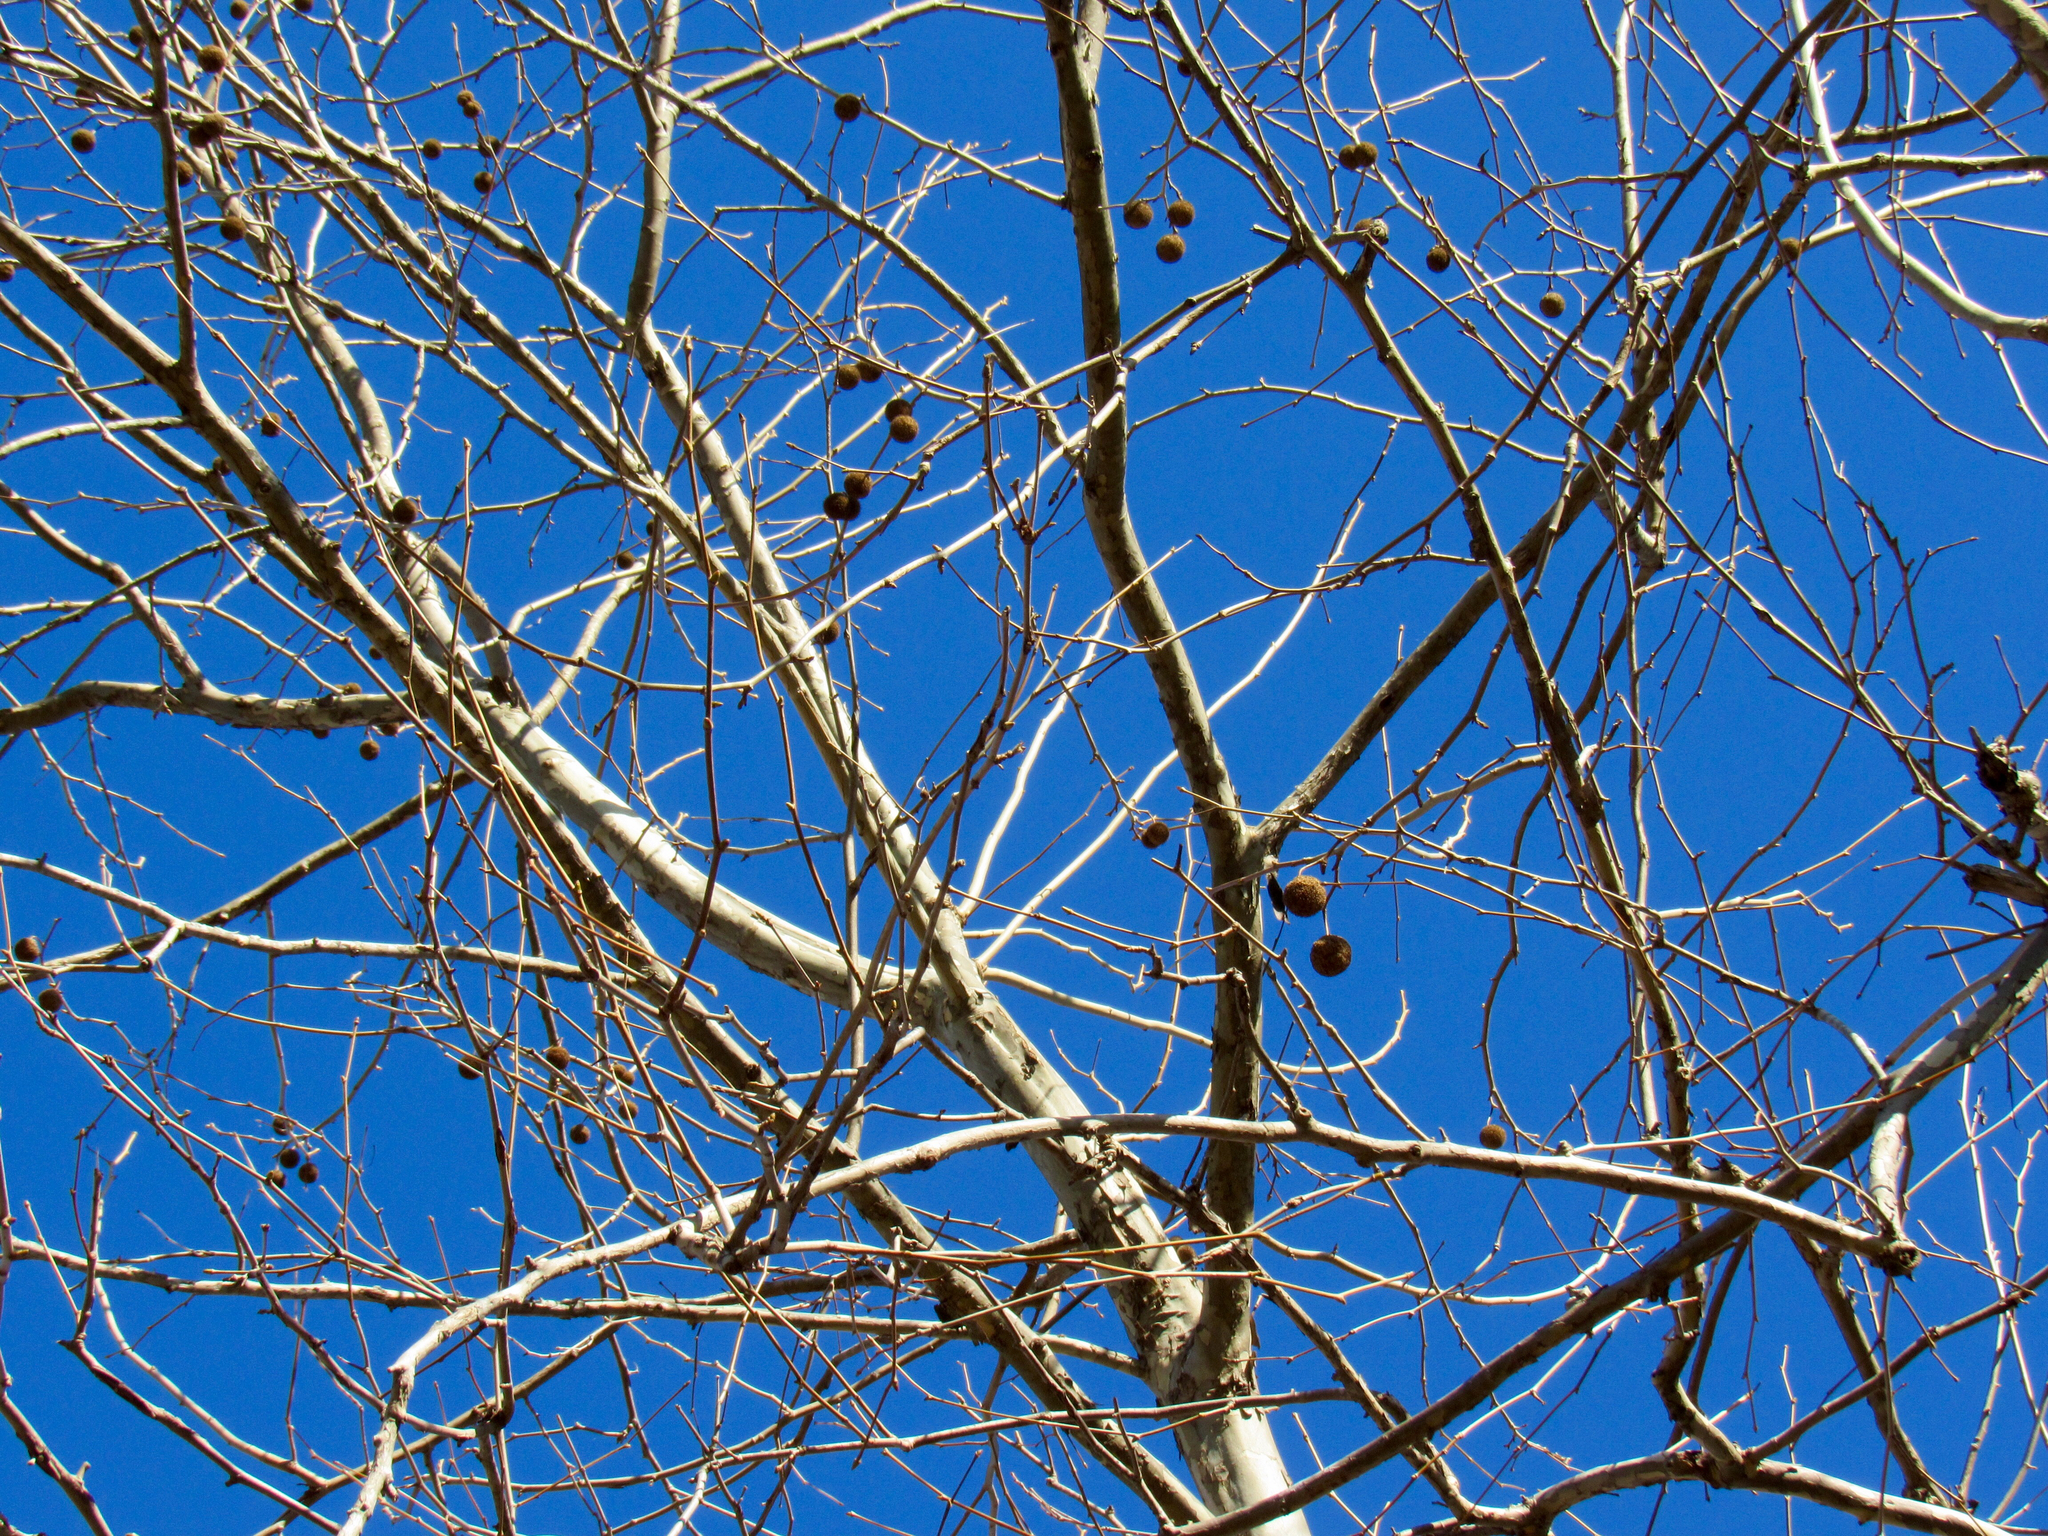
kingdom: Plantae
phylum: Tracheophyta
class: Magnoliopsida
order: Proteales
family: Platanaceae
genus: Platanus
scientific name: Platanus occidentalis
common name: American sycamore
